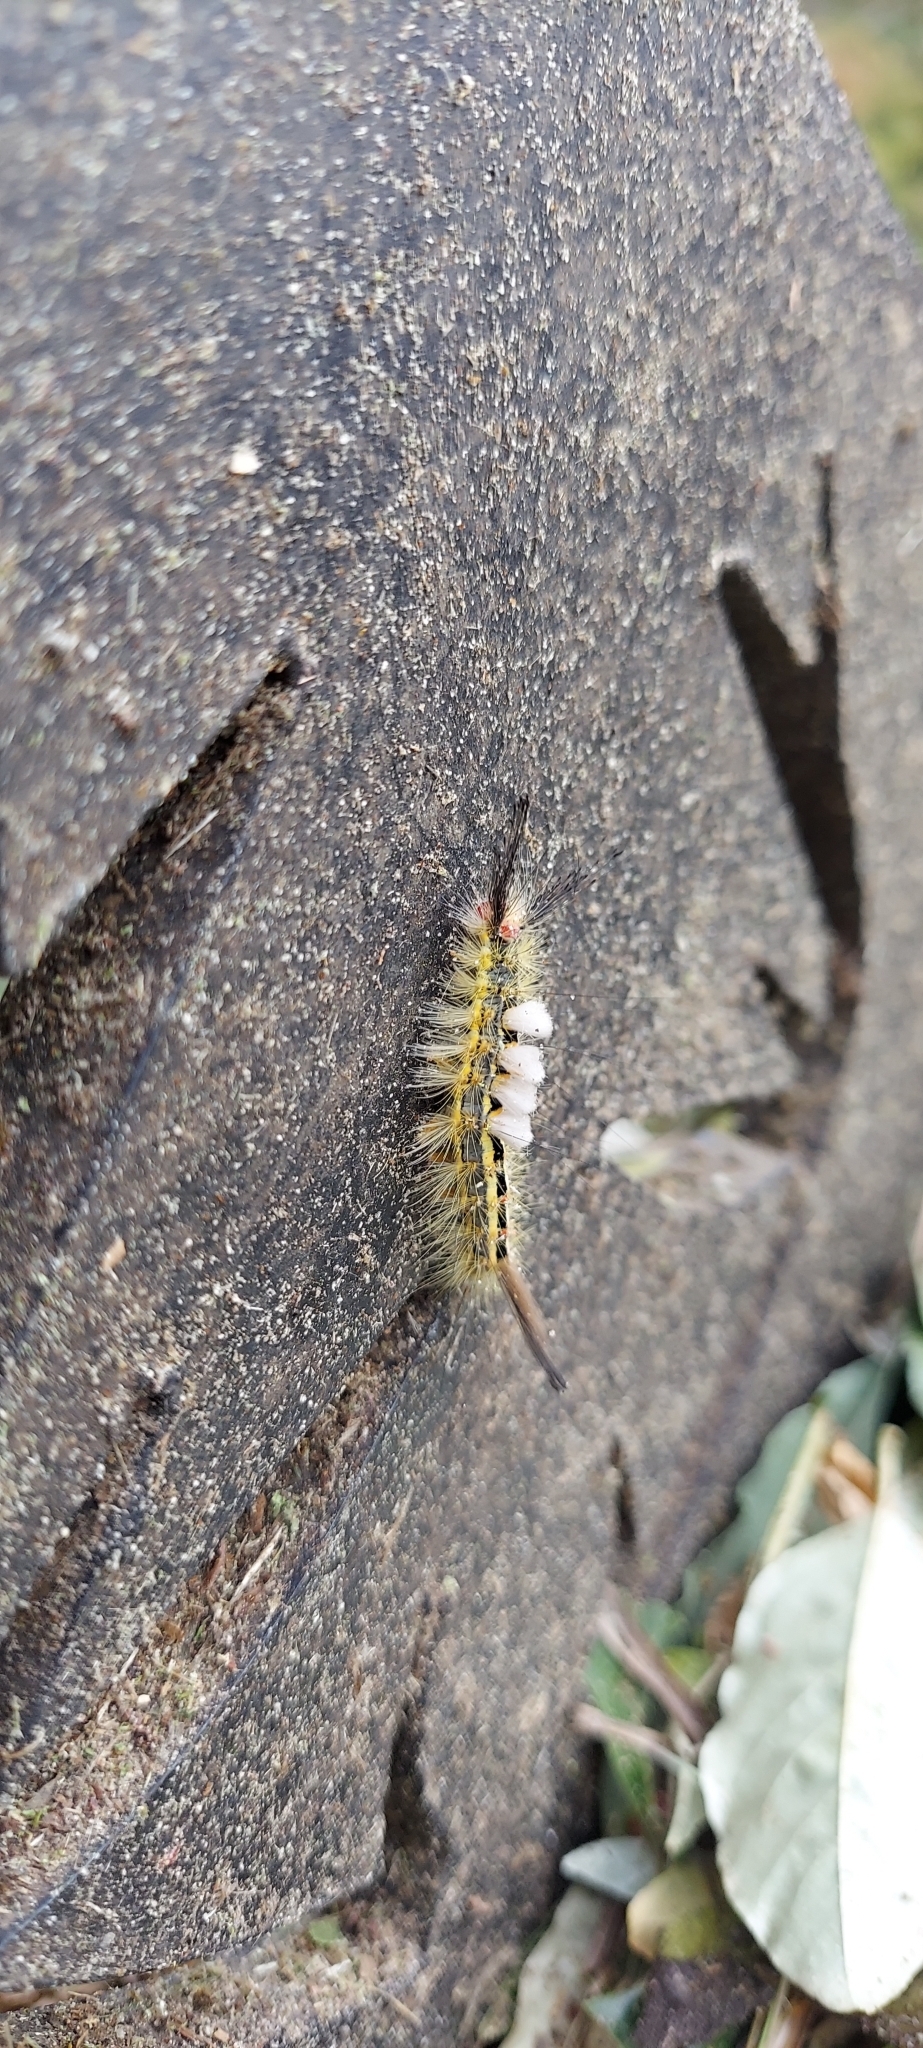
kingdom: Animalia
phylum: Arthropoda
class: Insecta
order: Lepidoptera
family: Erebidae
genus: Orgyia
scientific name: Orgyia leucostigma
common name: White-marked tussock moth
